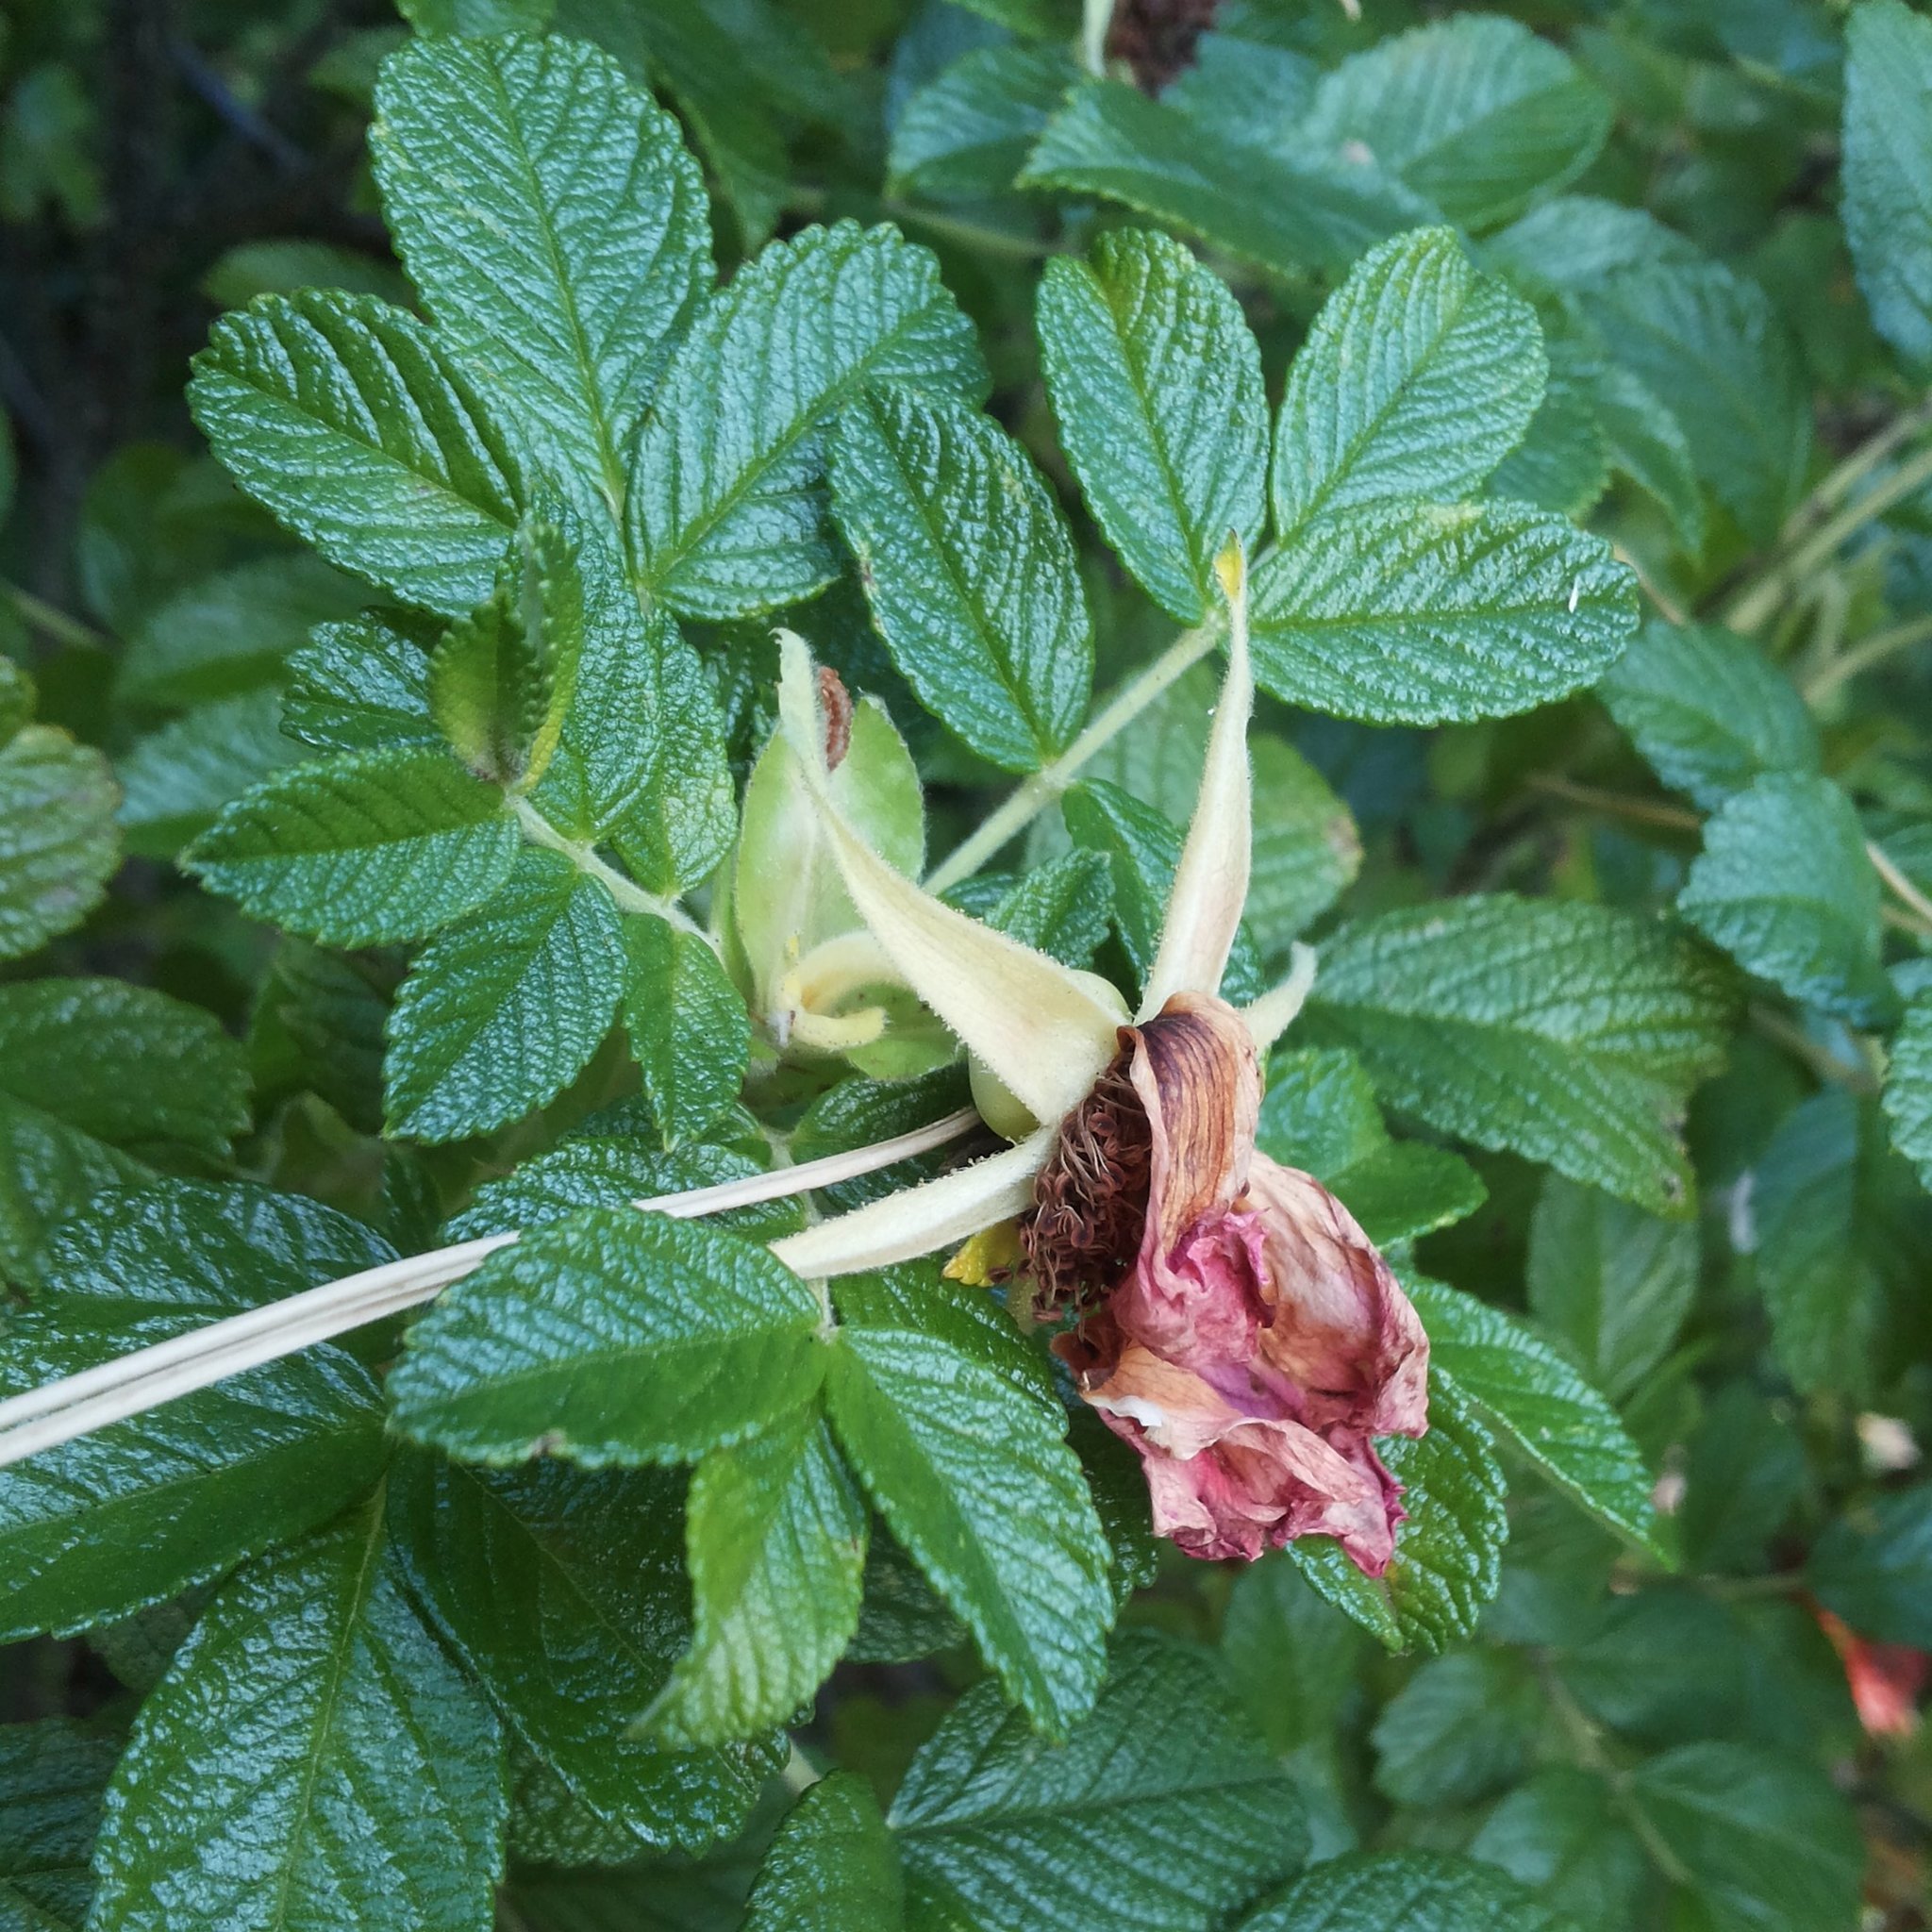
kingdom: Plantae
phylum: Tracheophyta
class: Magnoliopsida
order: Rosales
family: Rosaceae
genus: Rosa
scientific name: Rosa rugosa
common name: Japanese rose
